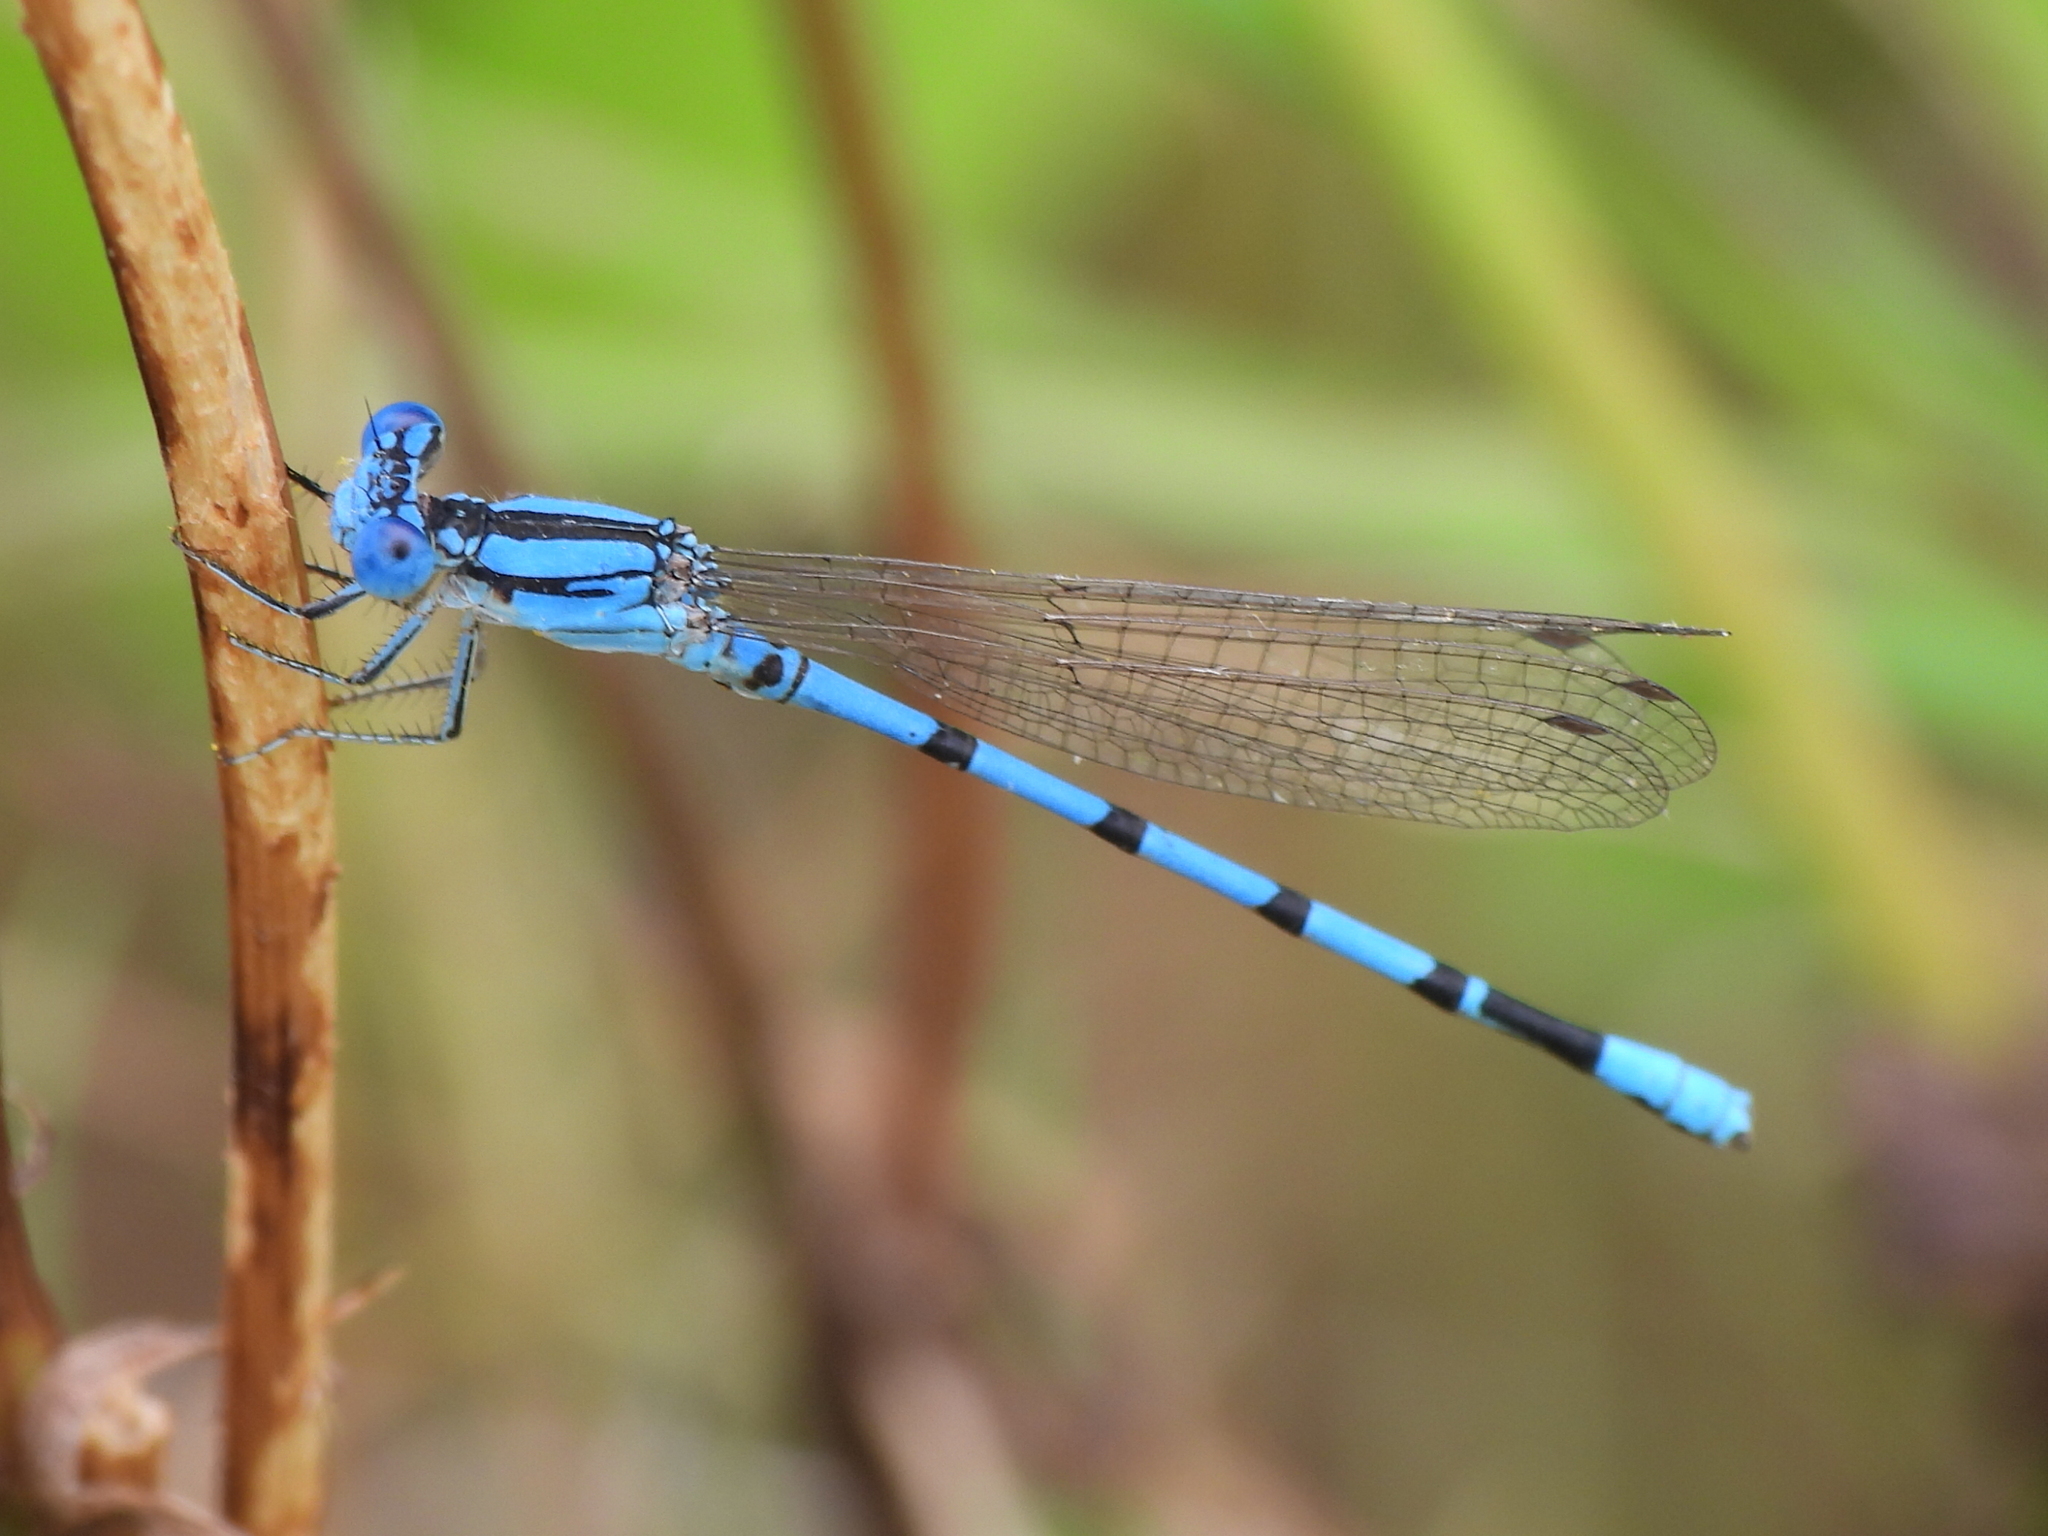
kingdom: Animalia
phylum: Arthropoda
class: Insecta
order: Odonata
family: Coenagrionidae
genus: Argia
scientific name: Argia nahuana
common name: Aztec dancer
